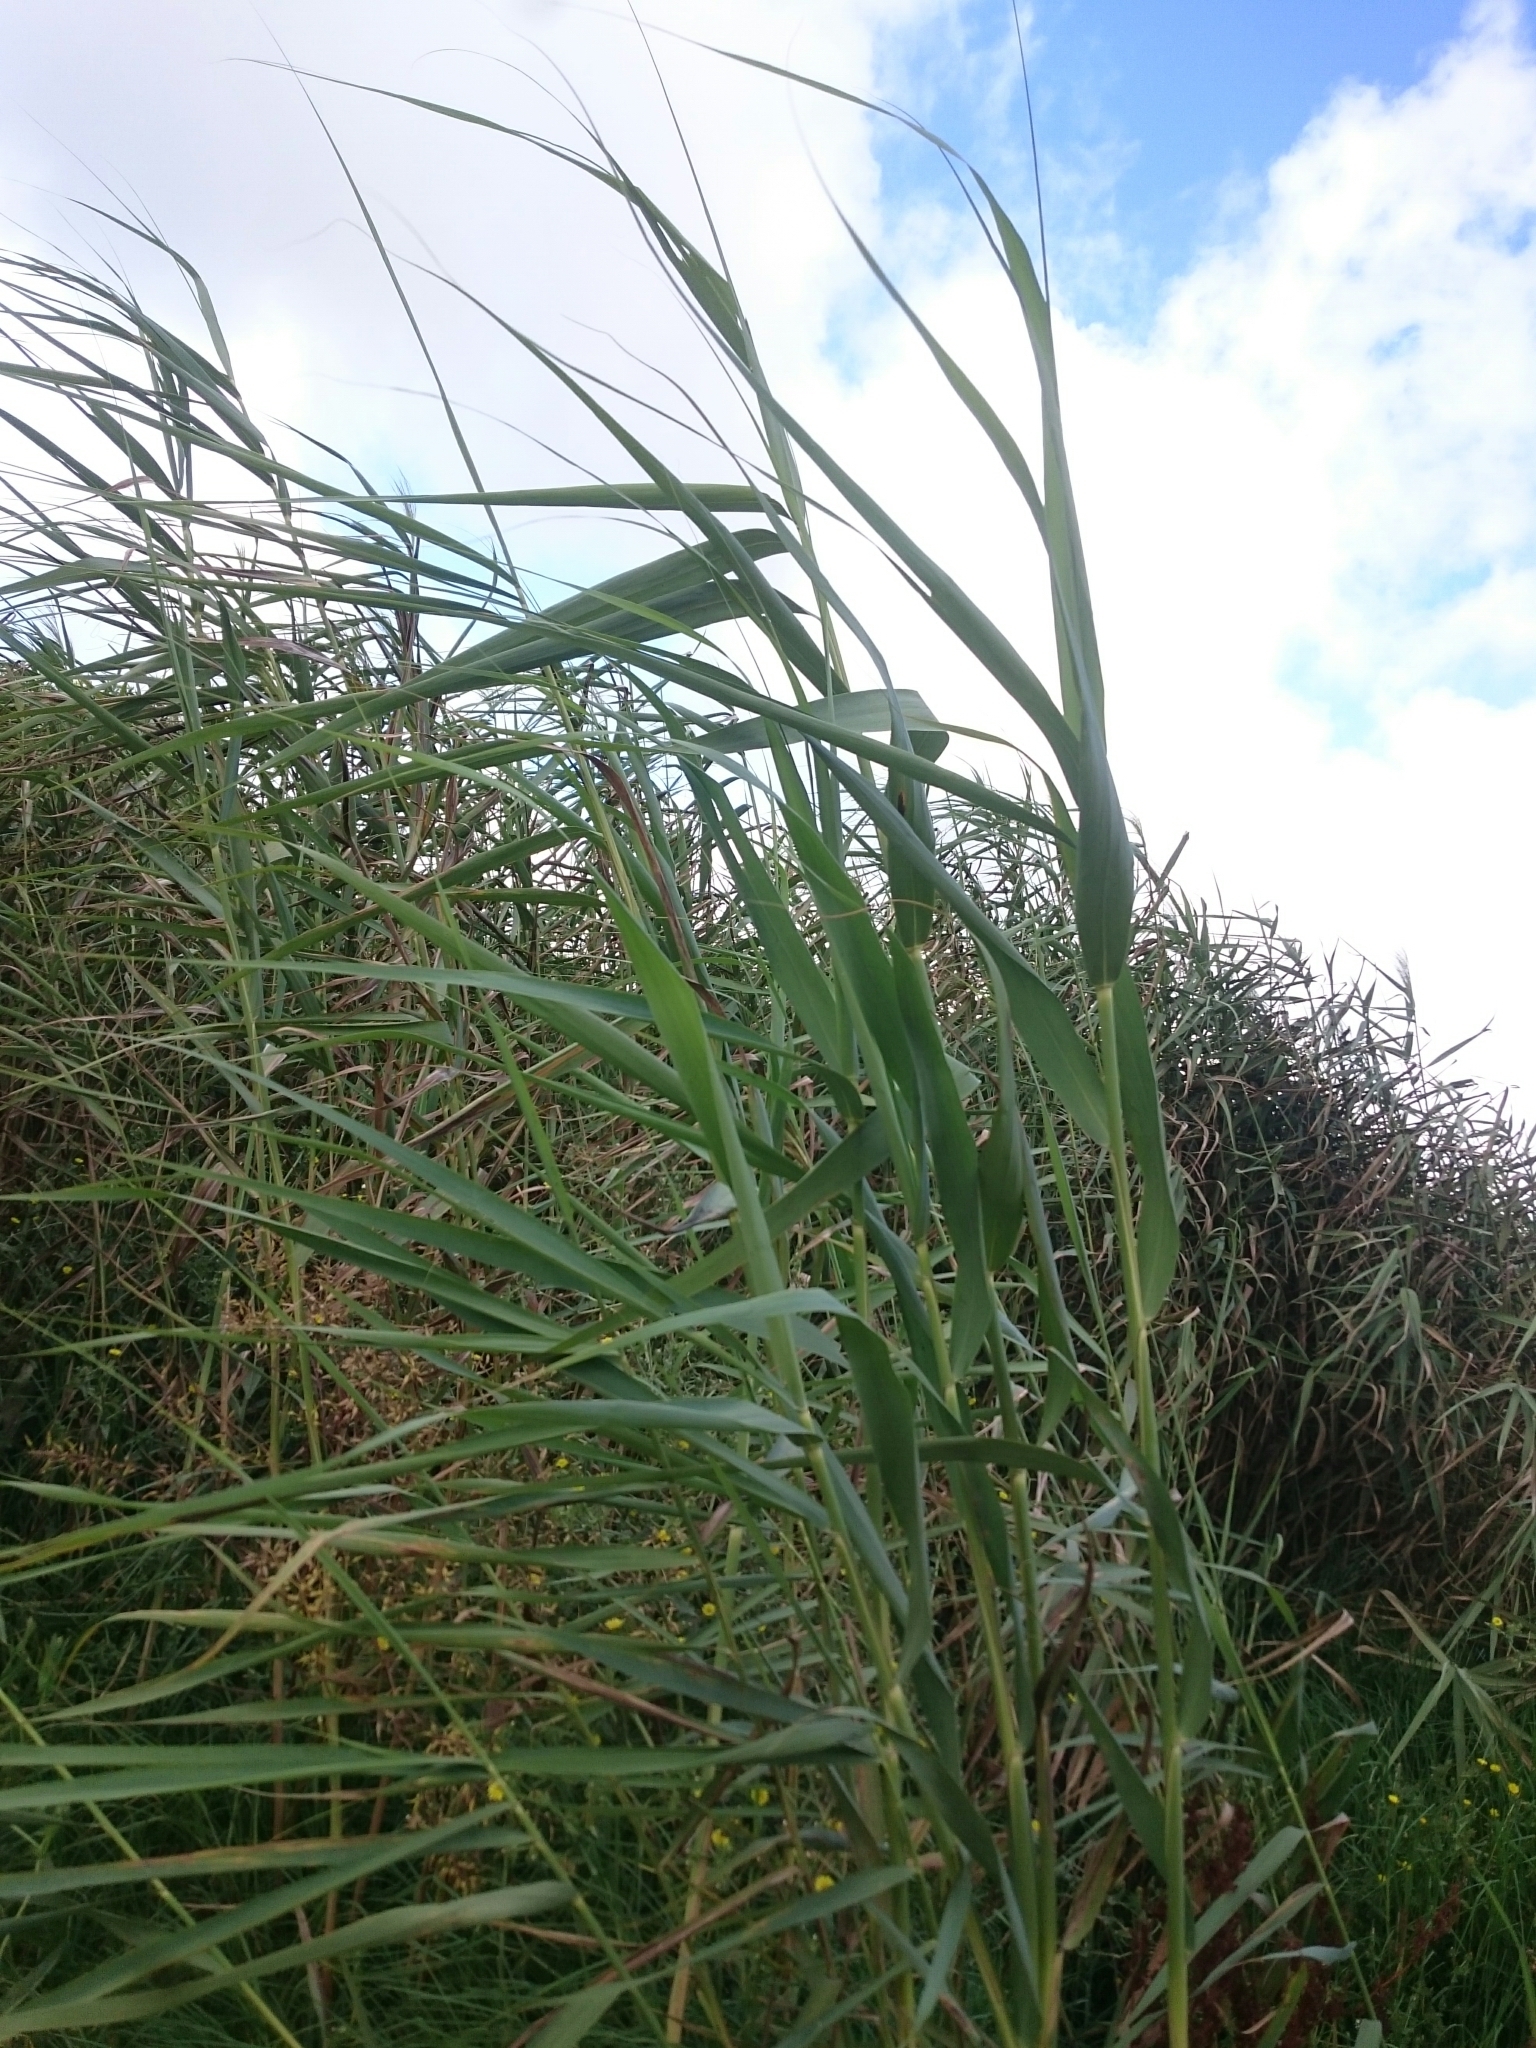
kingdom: Plantae
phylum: Tracheophyta
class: Liliopsida
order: Poales
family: Poaceae
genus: Phragmites
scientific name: Phragmites australis
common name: Common reed
